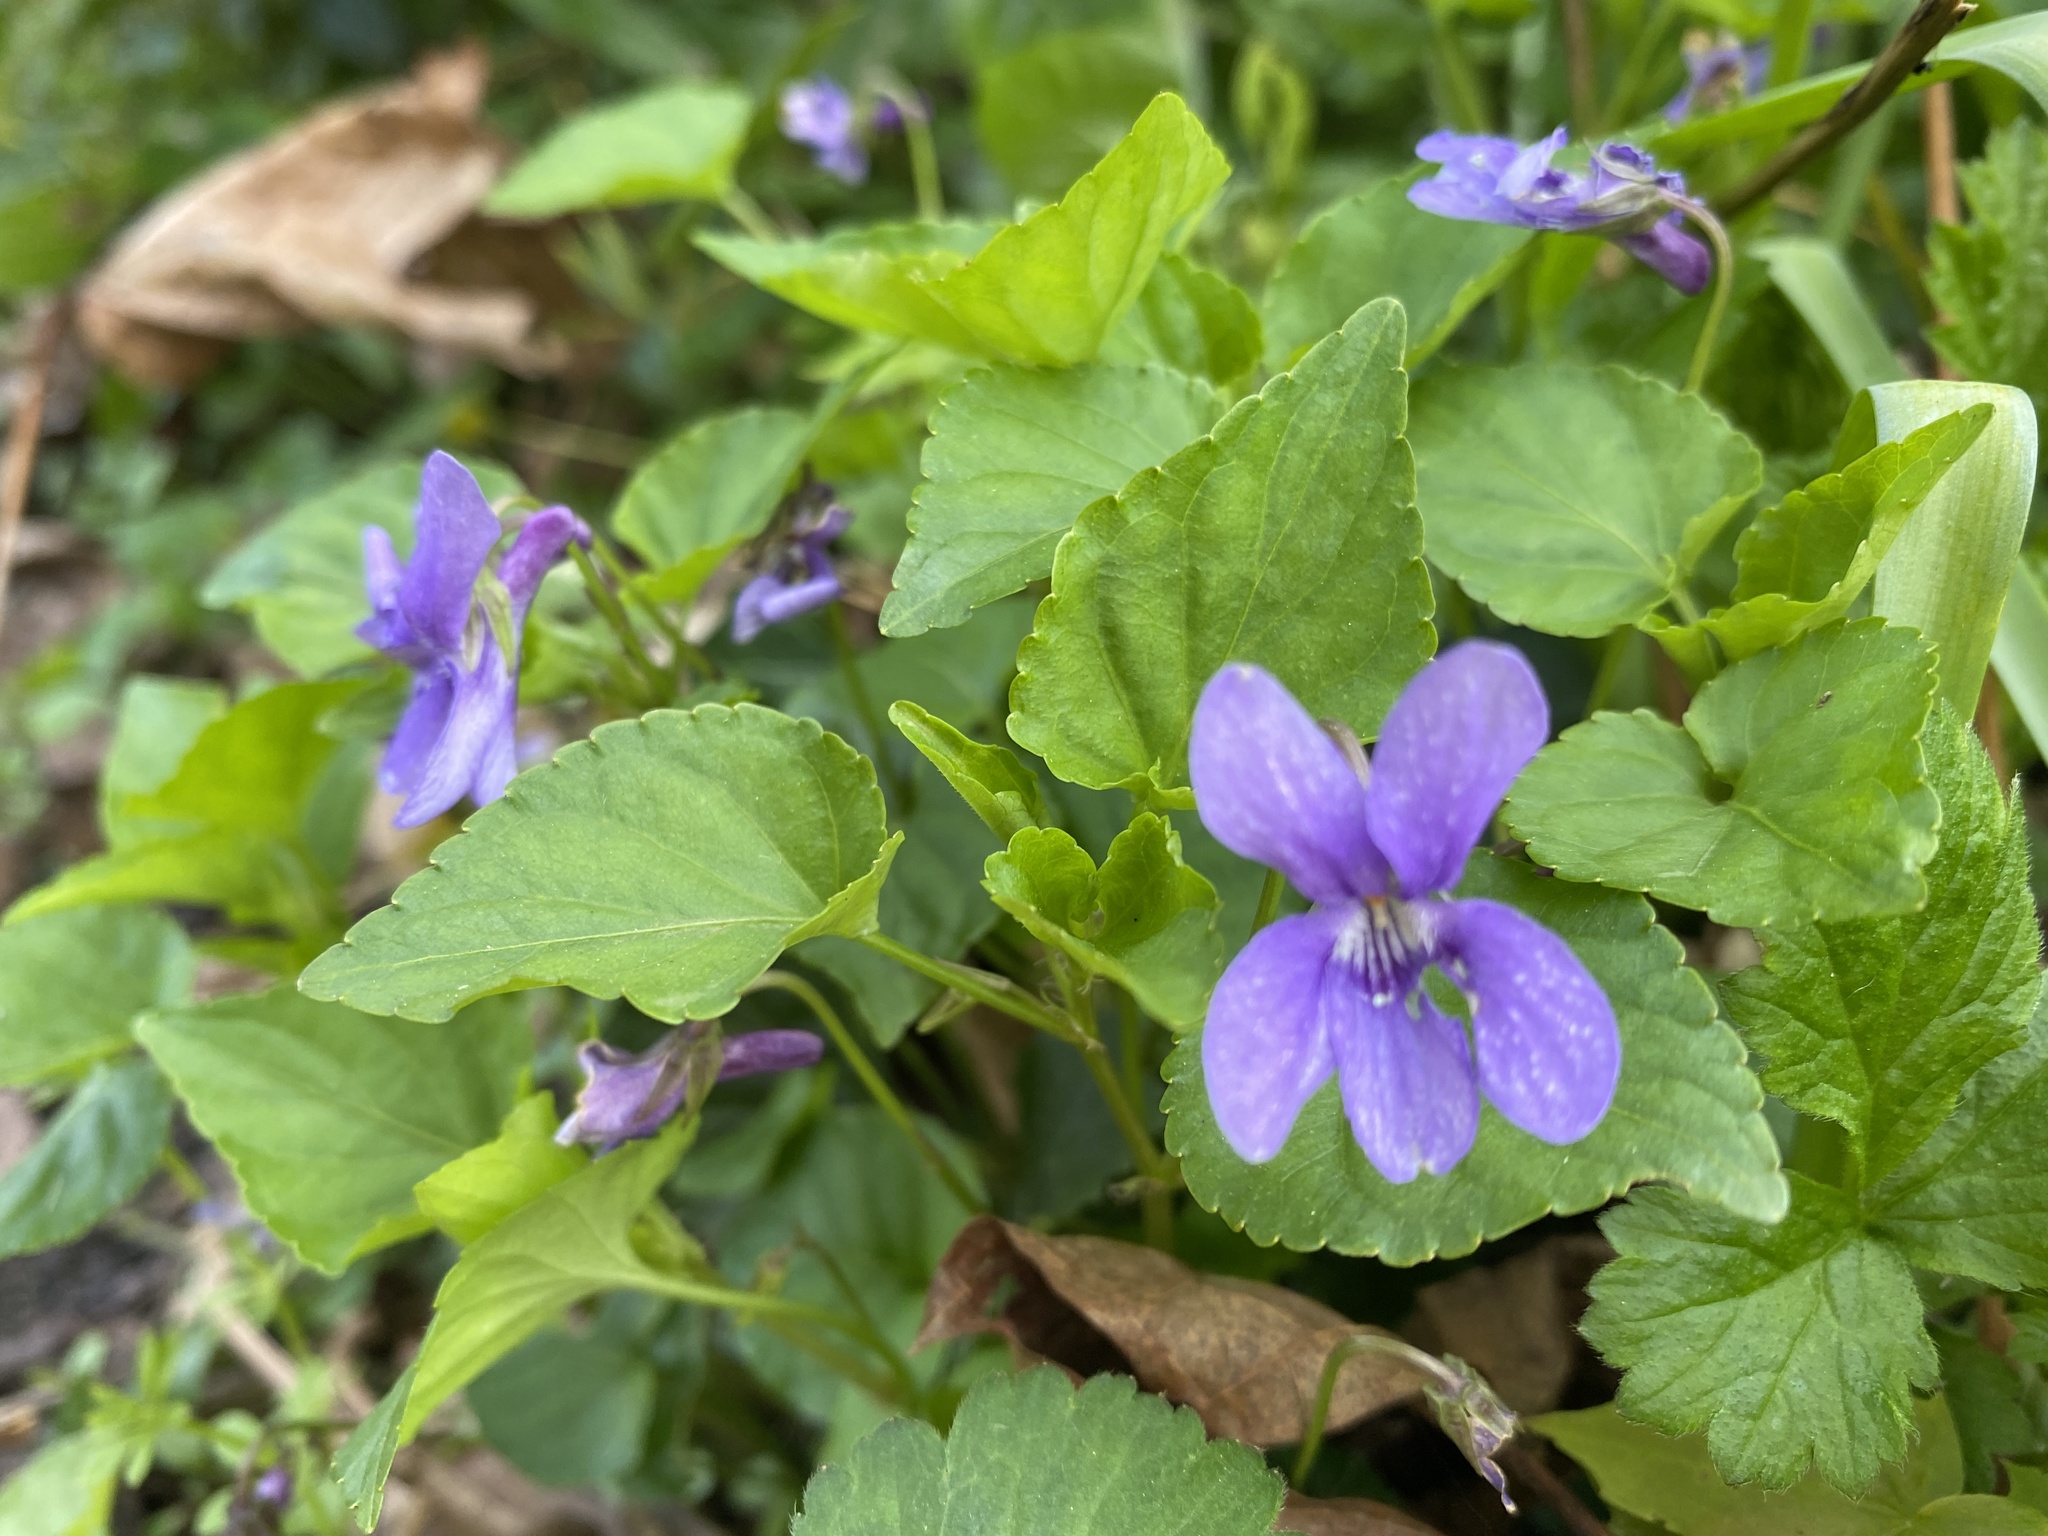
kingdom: Plantae
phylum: Tracheophyta
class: Magnoliopsida
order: Malpighiales
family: Violaceae
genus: Viola
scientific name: Viola reichenbachiana
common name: Early dog-violet
